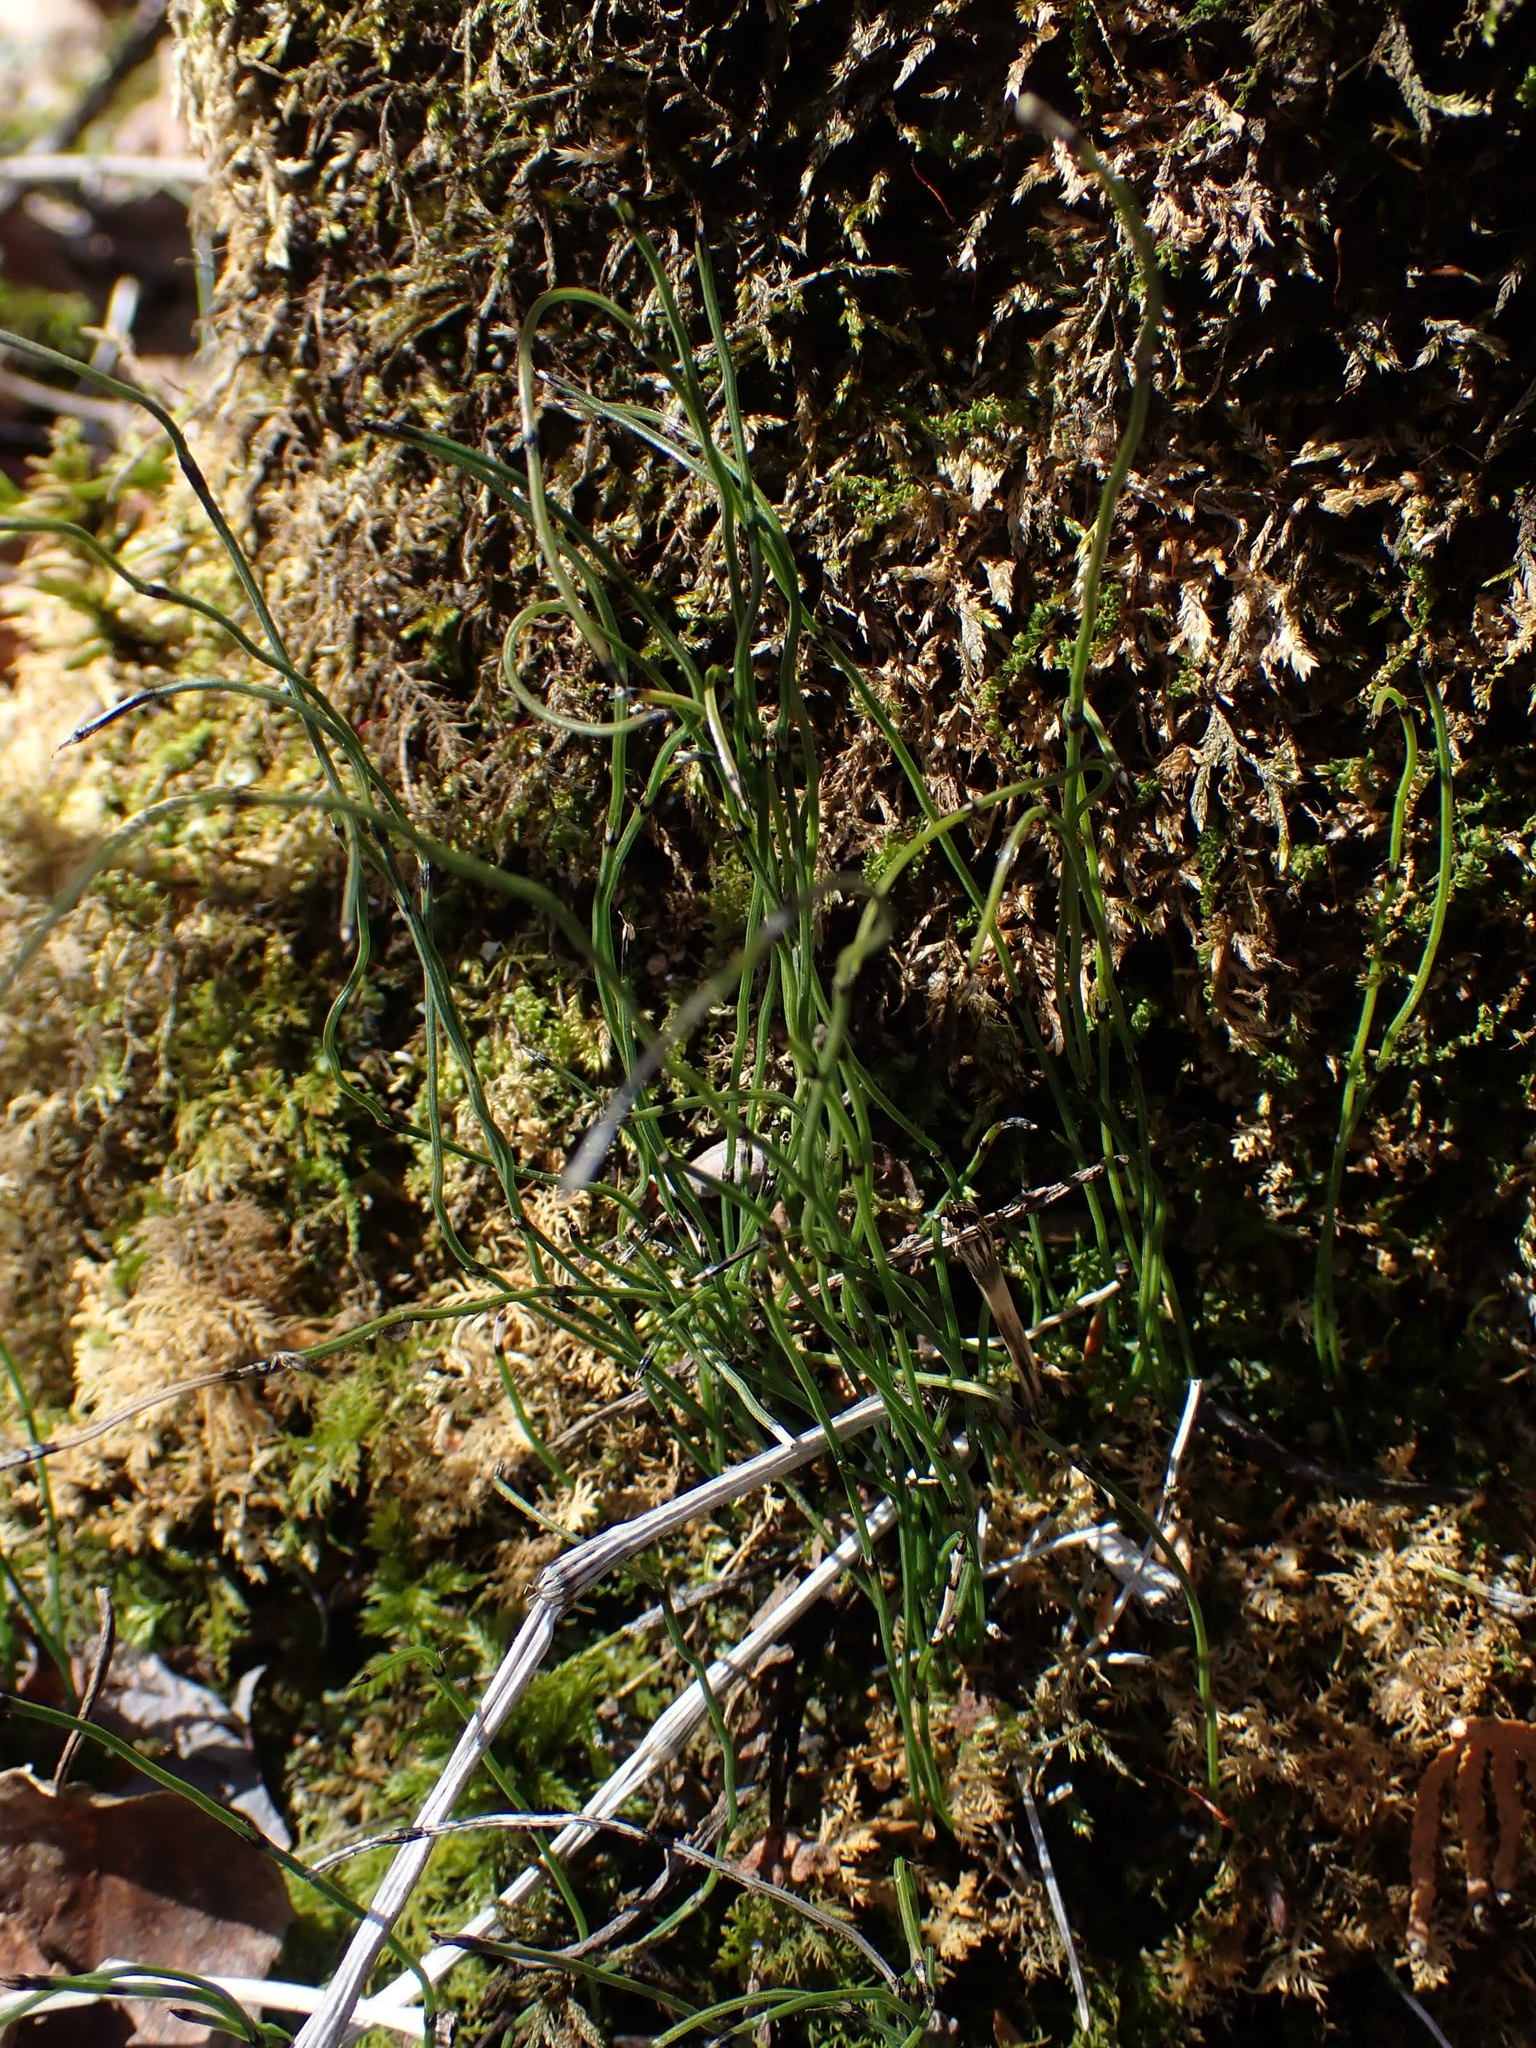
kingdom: Plantae
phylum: Tracheophyta
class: Polypodiopsida
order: Equisetales
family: Equisetaceae
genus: Equisetum
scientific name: Equisetum scirpoides
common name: Delicate horsetail
